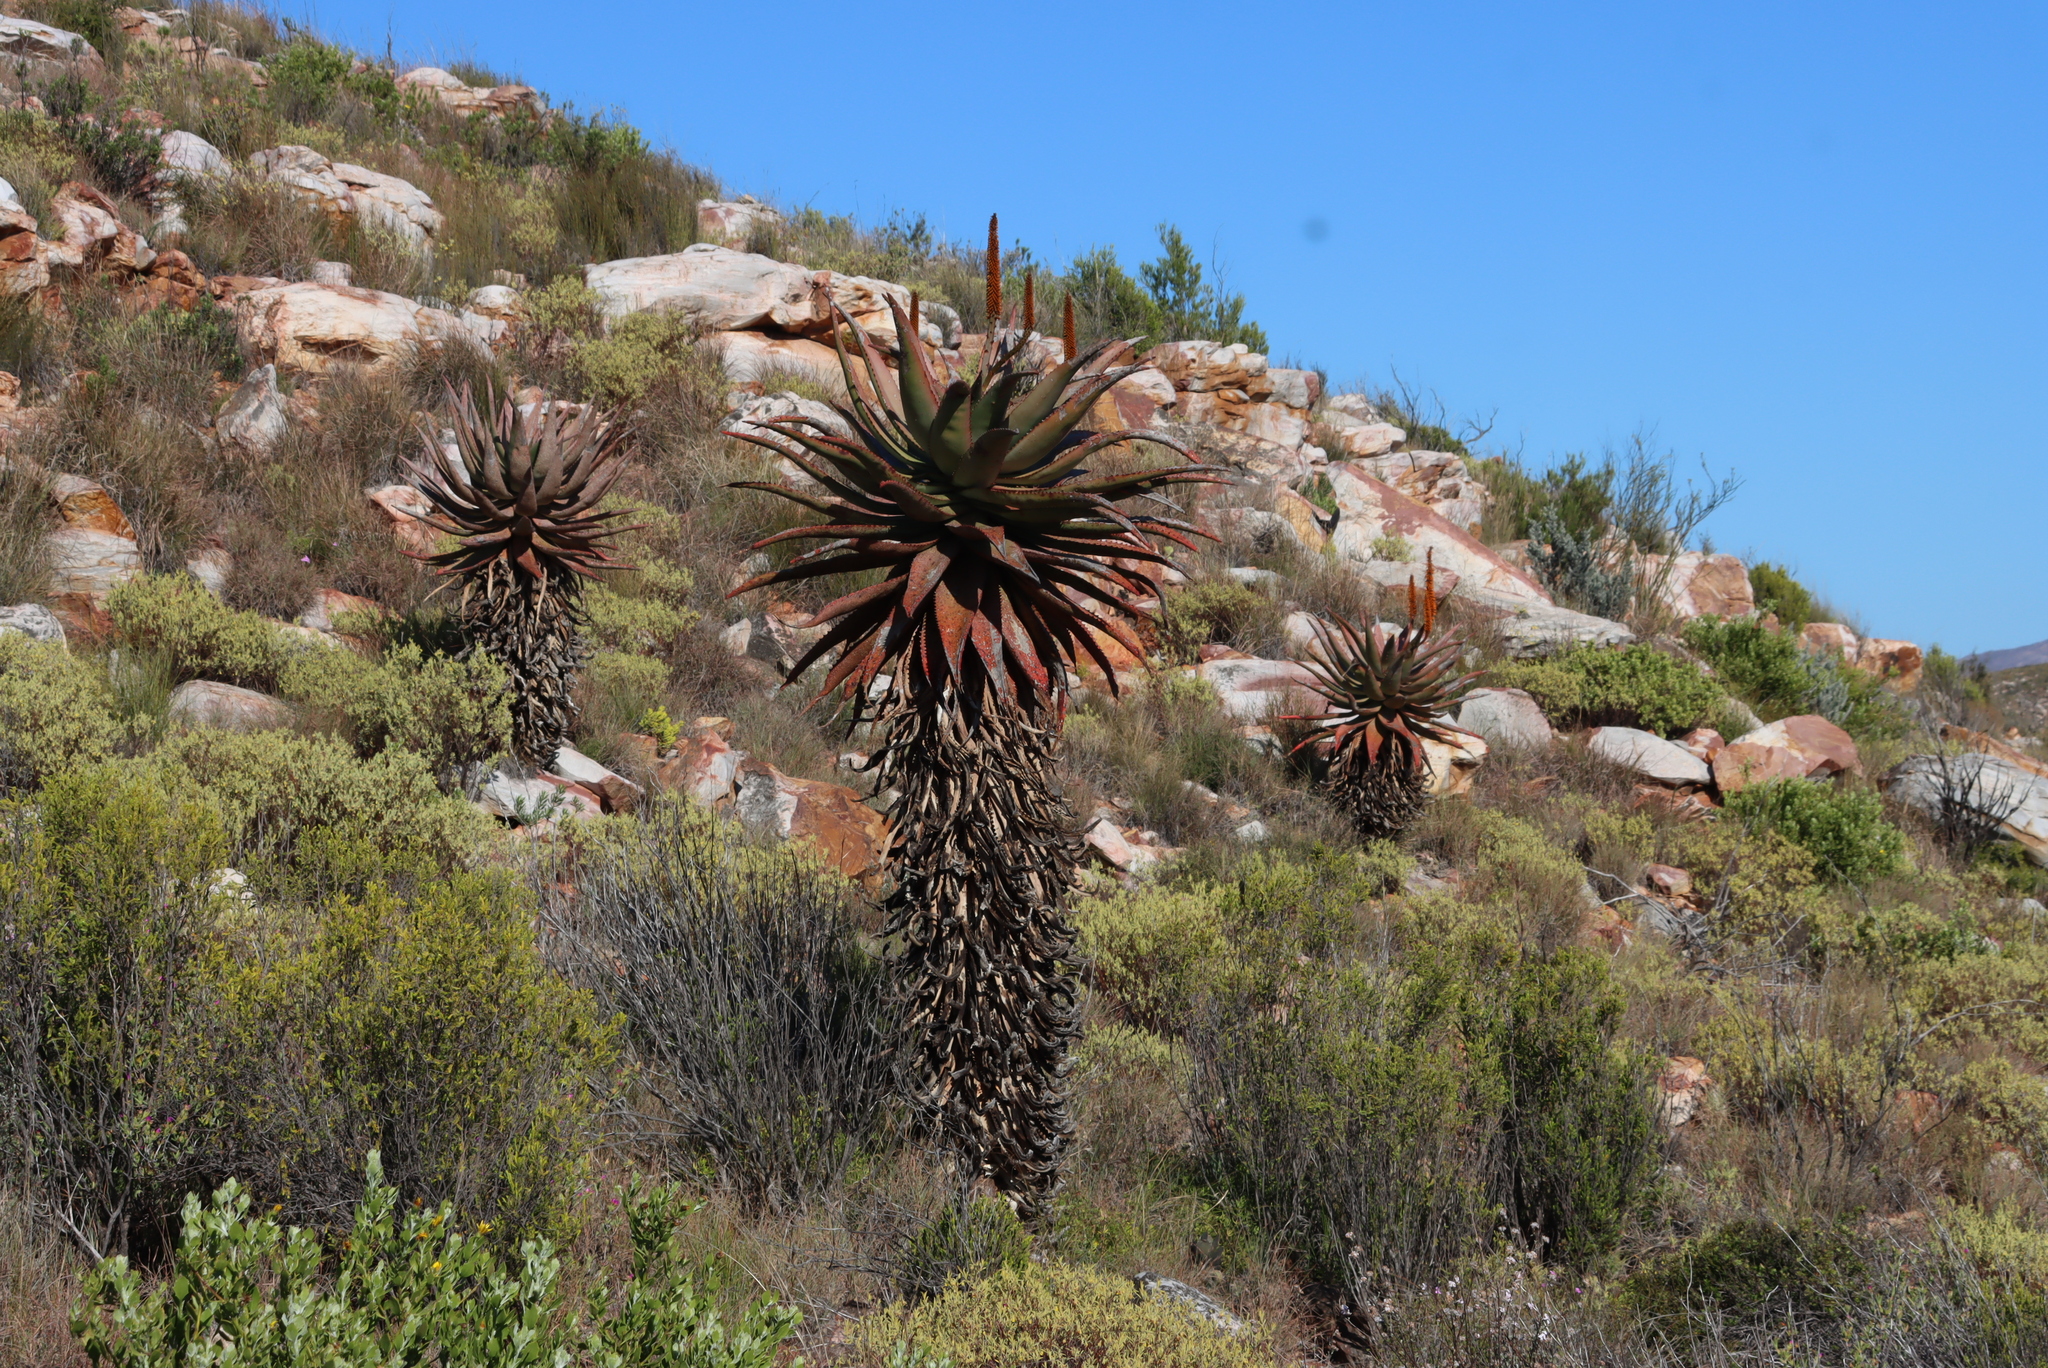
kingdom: Plantae
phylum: Tracheophyta
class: Liliopsida
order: Asparagales
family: Asphodelaceae
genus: Aloe
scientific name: Aloe ferox
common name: Bitter aloe
